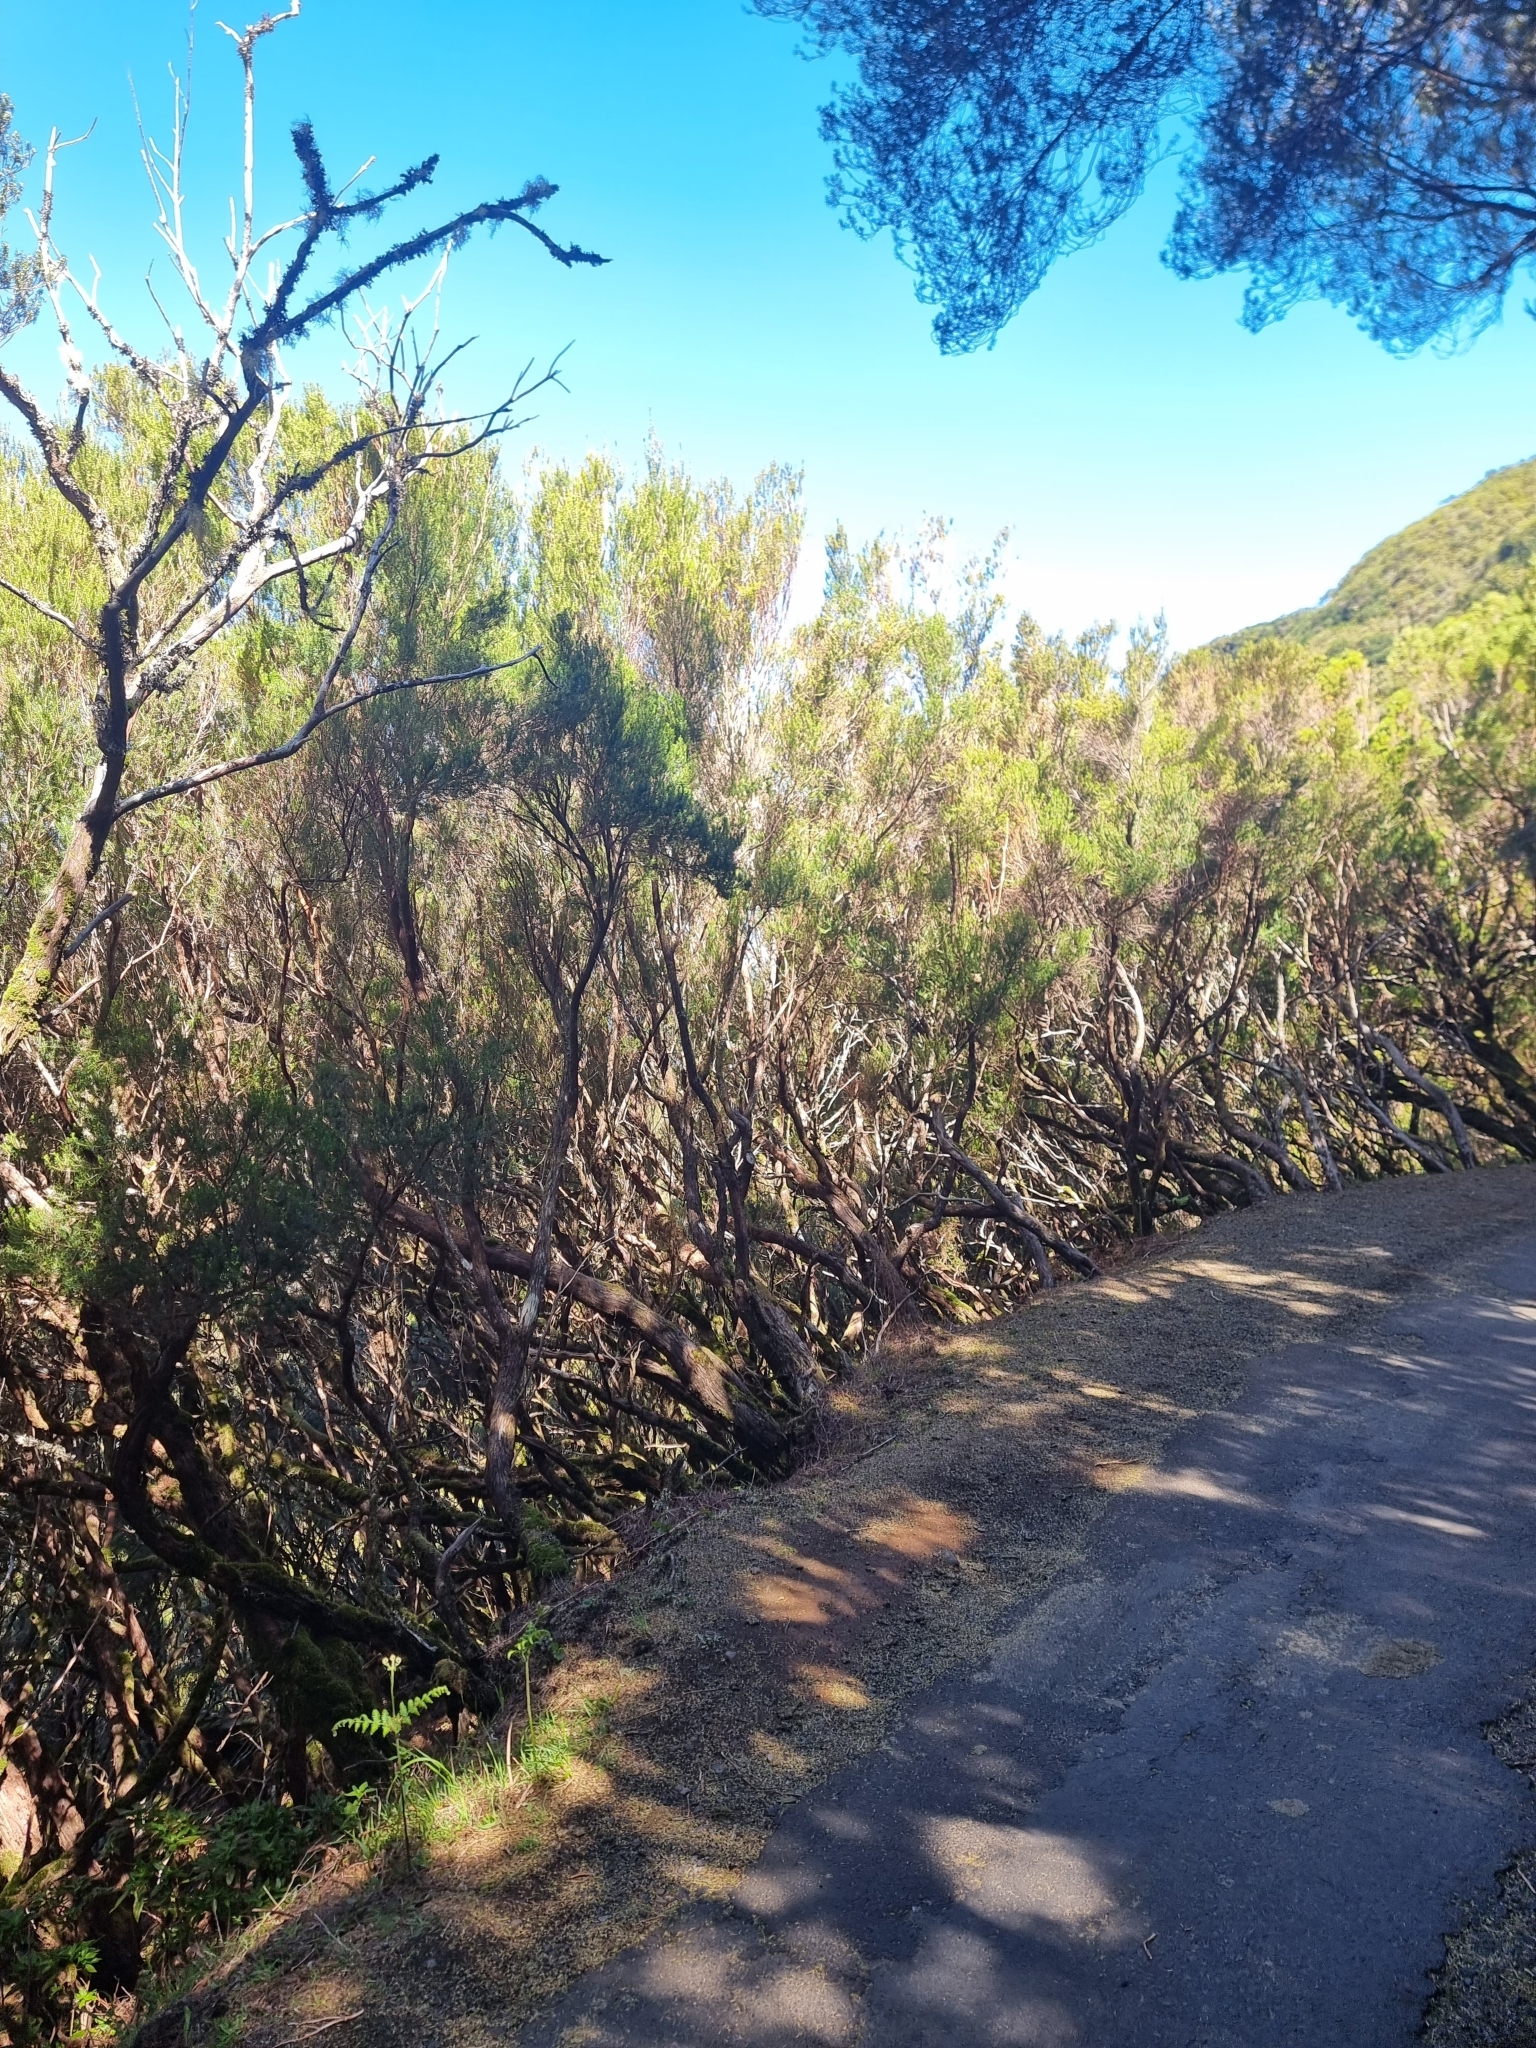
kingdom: Plantae
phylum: Tracheophyta
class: Magnoliopsida
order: Ericales
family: Ericaceae
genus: Erica
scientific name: Erica platycodon
